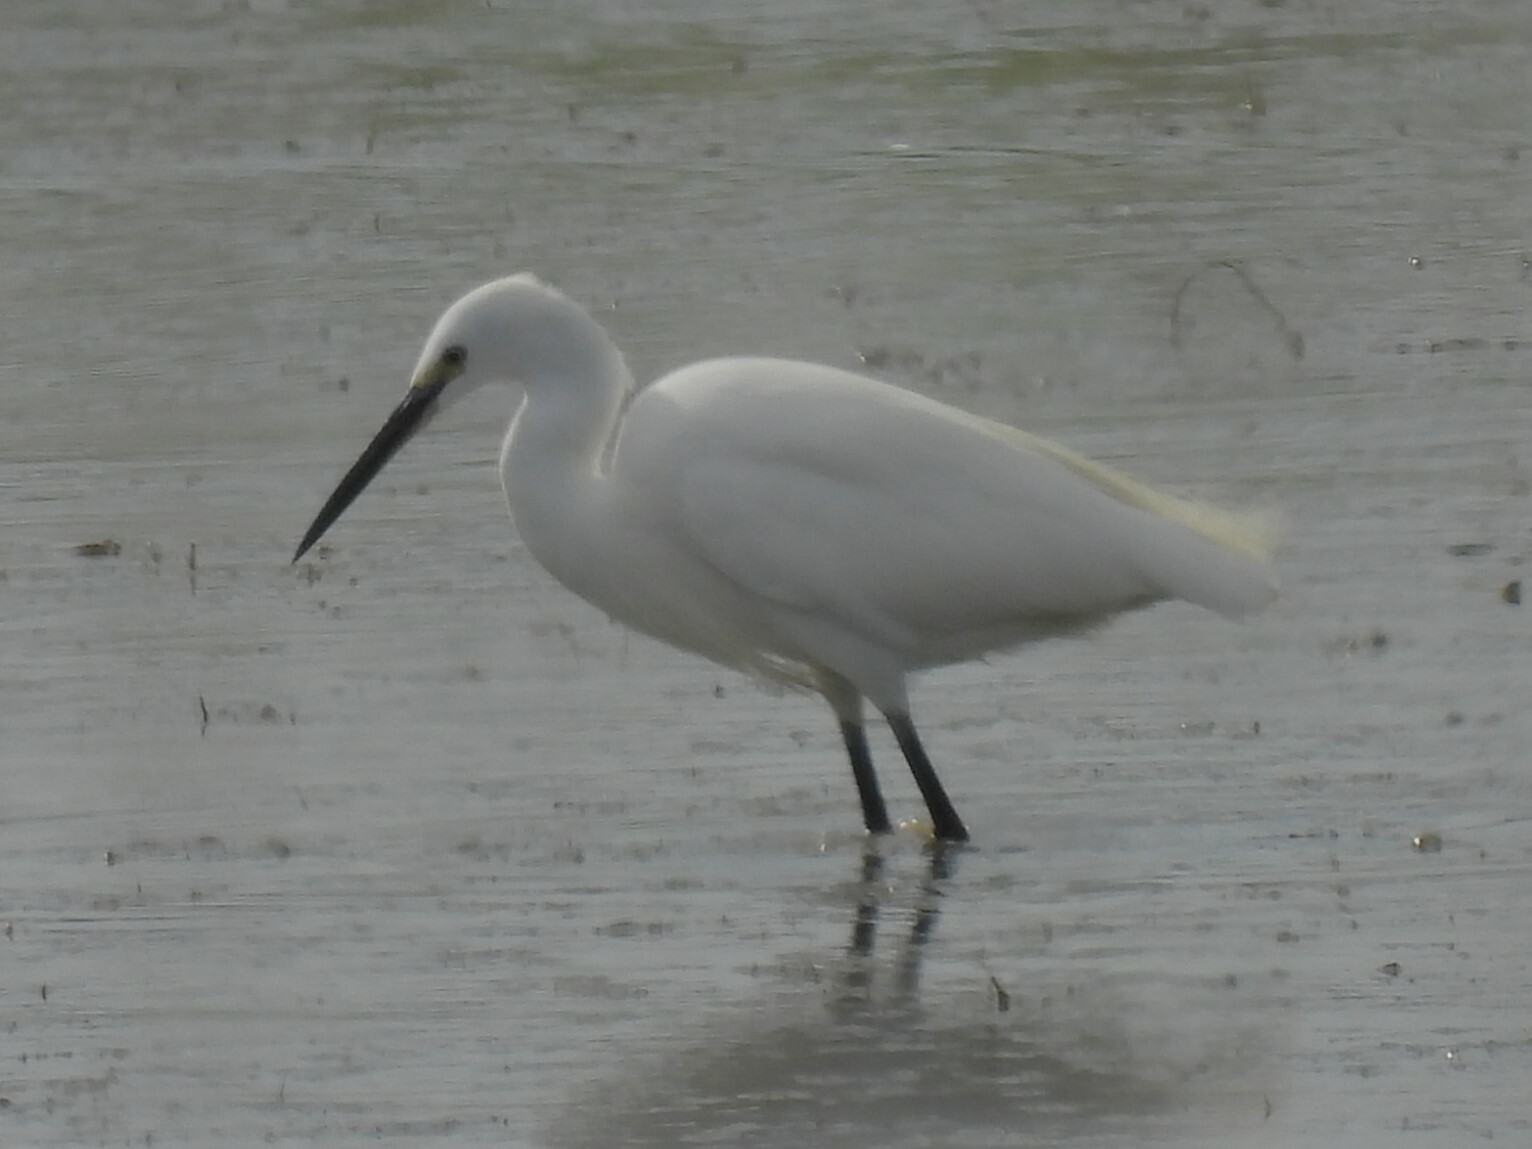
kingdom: Animalia
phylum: Chordata
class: Aves
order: Pelecaniformes
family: Ardeidae
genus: Egretta
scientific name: Egretta garzetta
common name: Little egret
